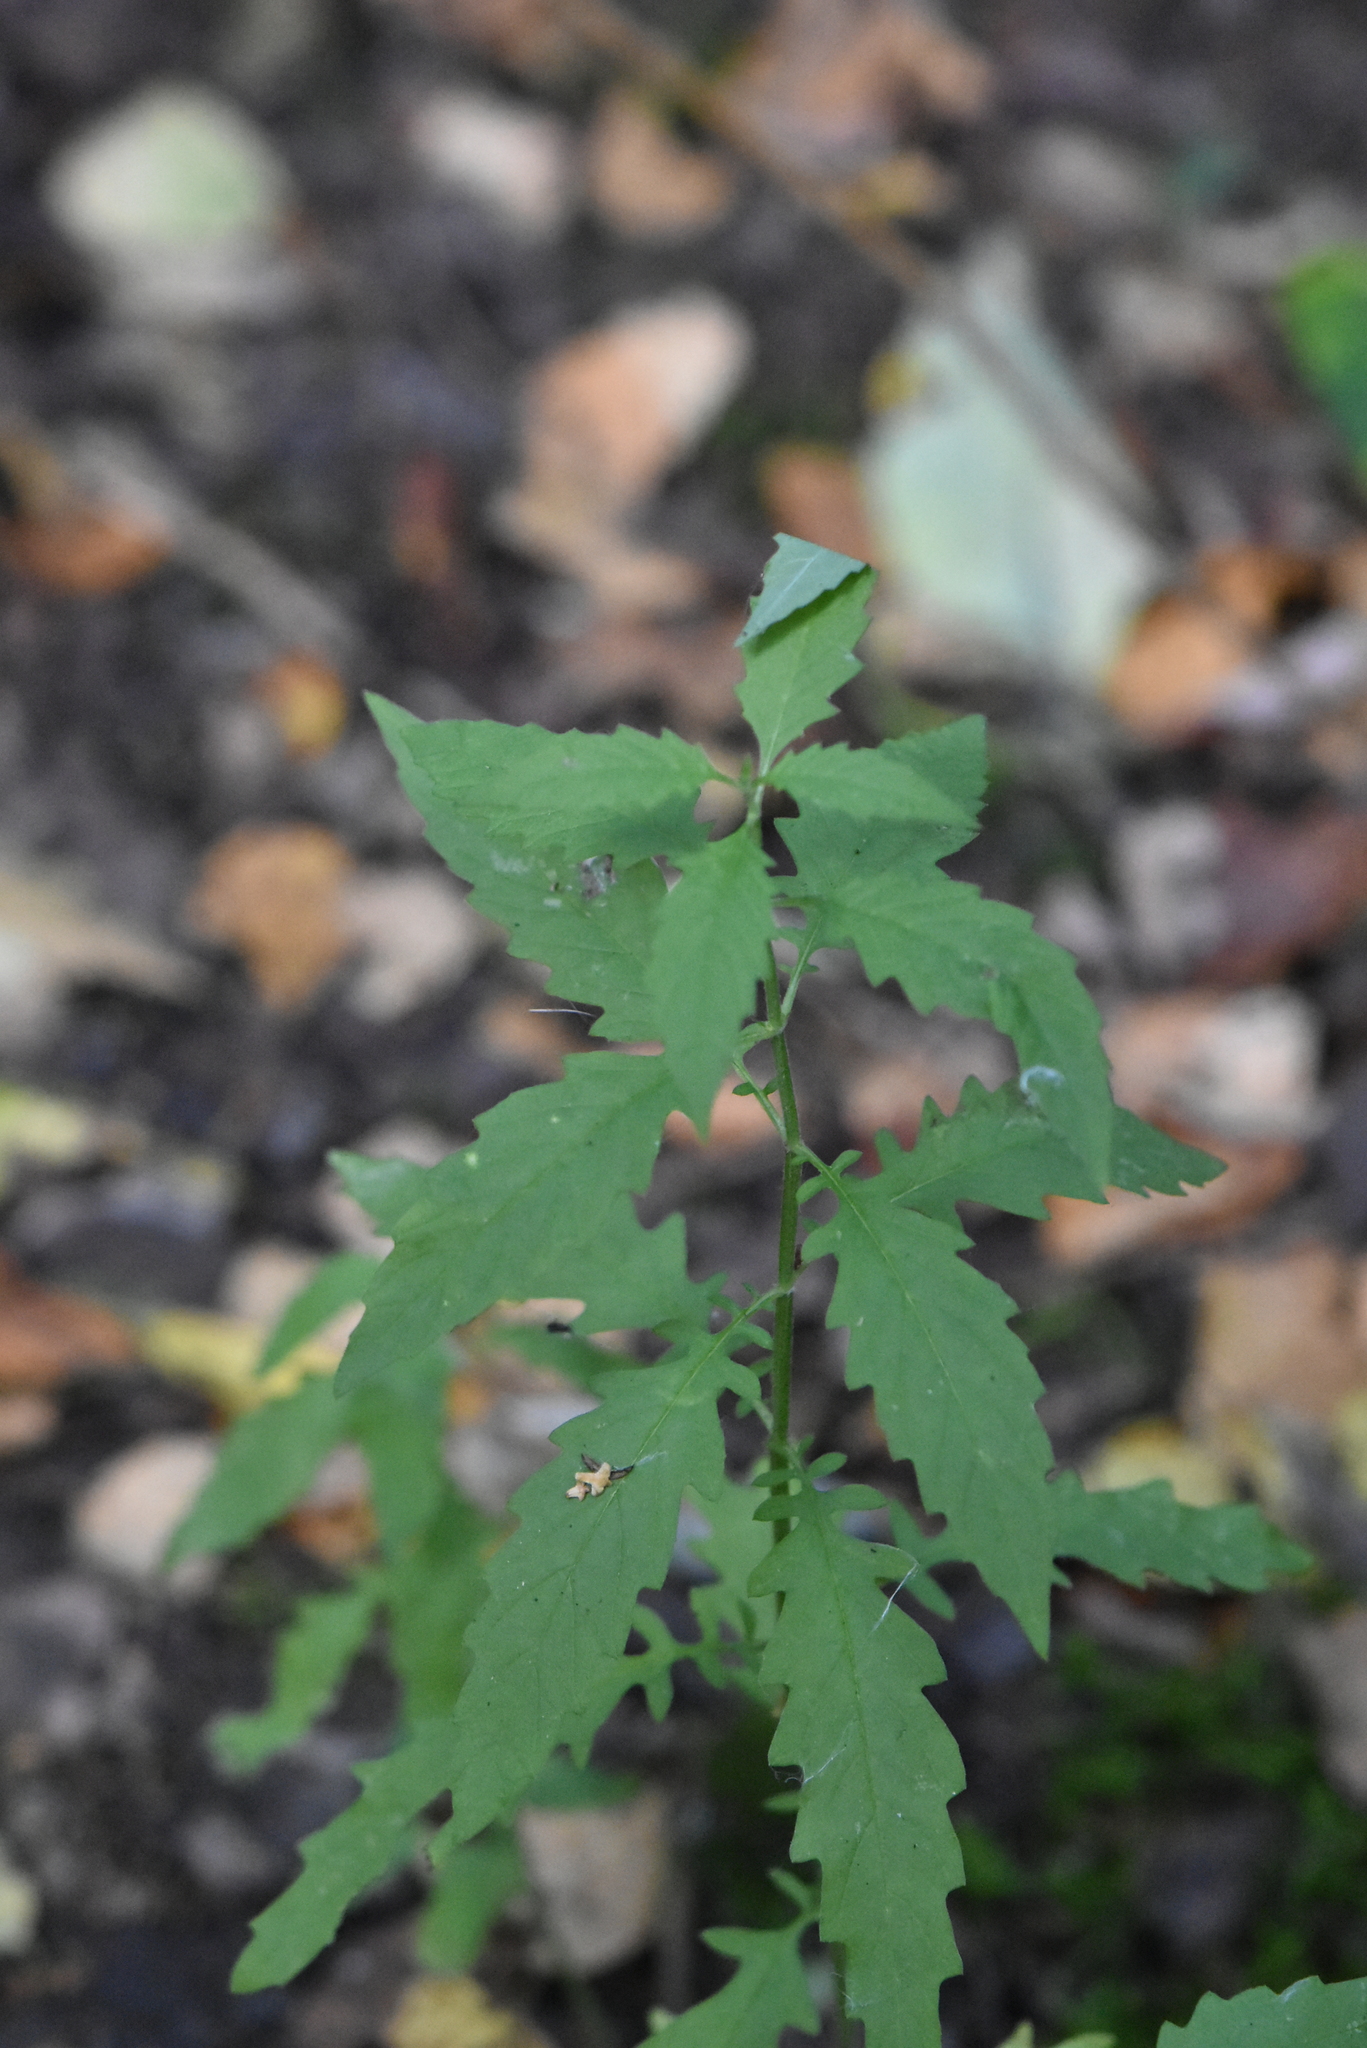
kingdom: Plantae
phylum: Tracheophyta
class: Magnoliopsida
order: Lamiales
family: Lamiaceae
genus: Lycopus
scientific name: Lycopus europaeus
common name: European bugleweed
